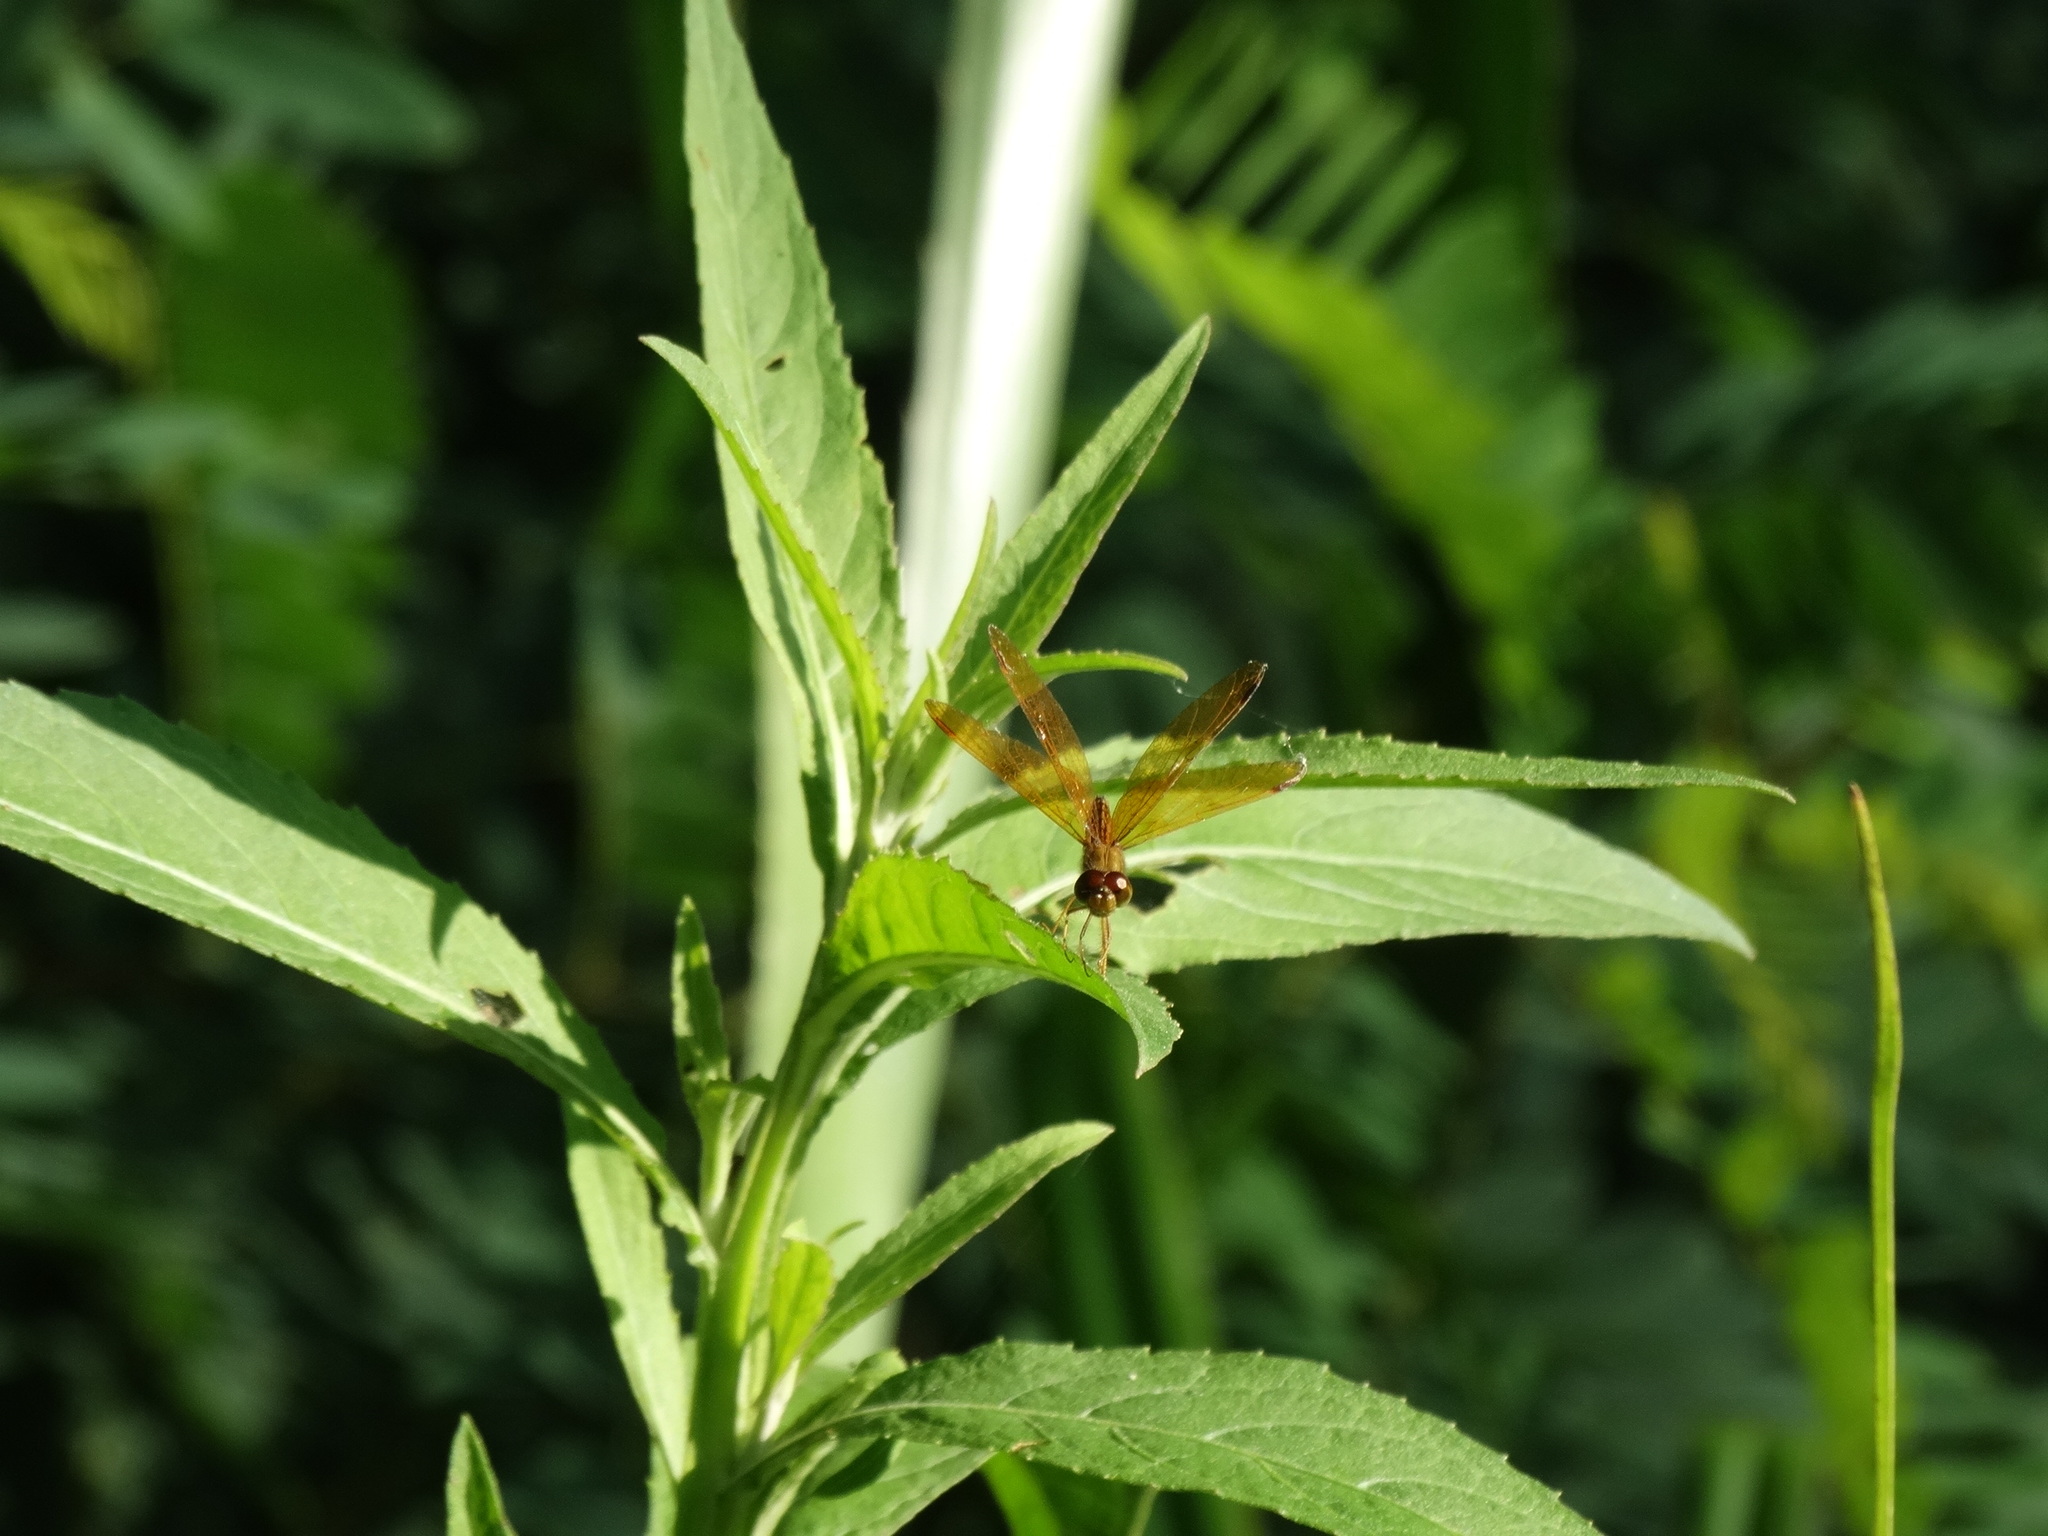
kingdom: Animalia
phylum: Arthropoda
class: Insecta
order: Odonata
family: Libellulidae
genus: Perithemis
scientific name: Perithemis icteroptera
